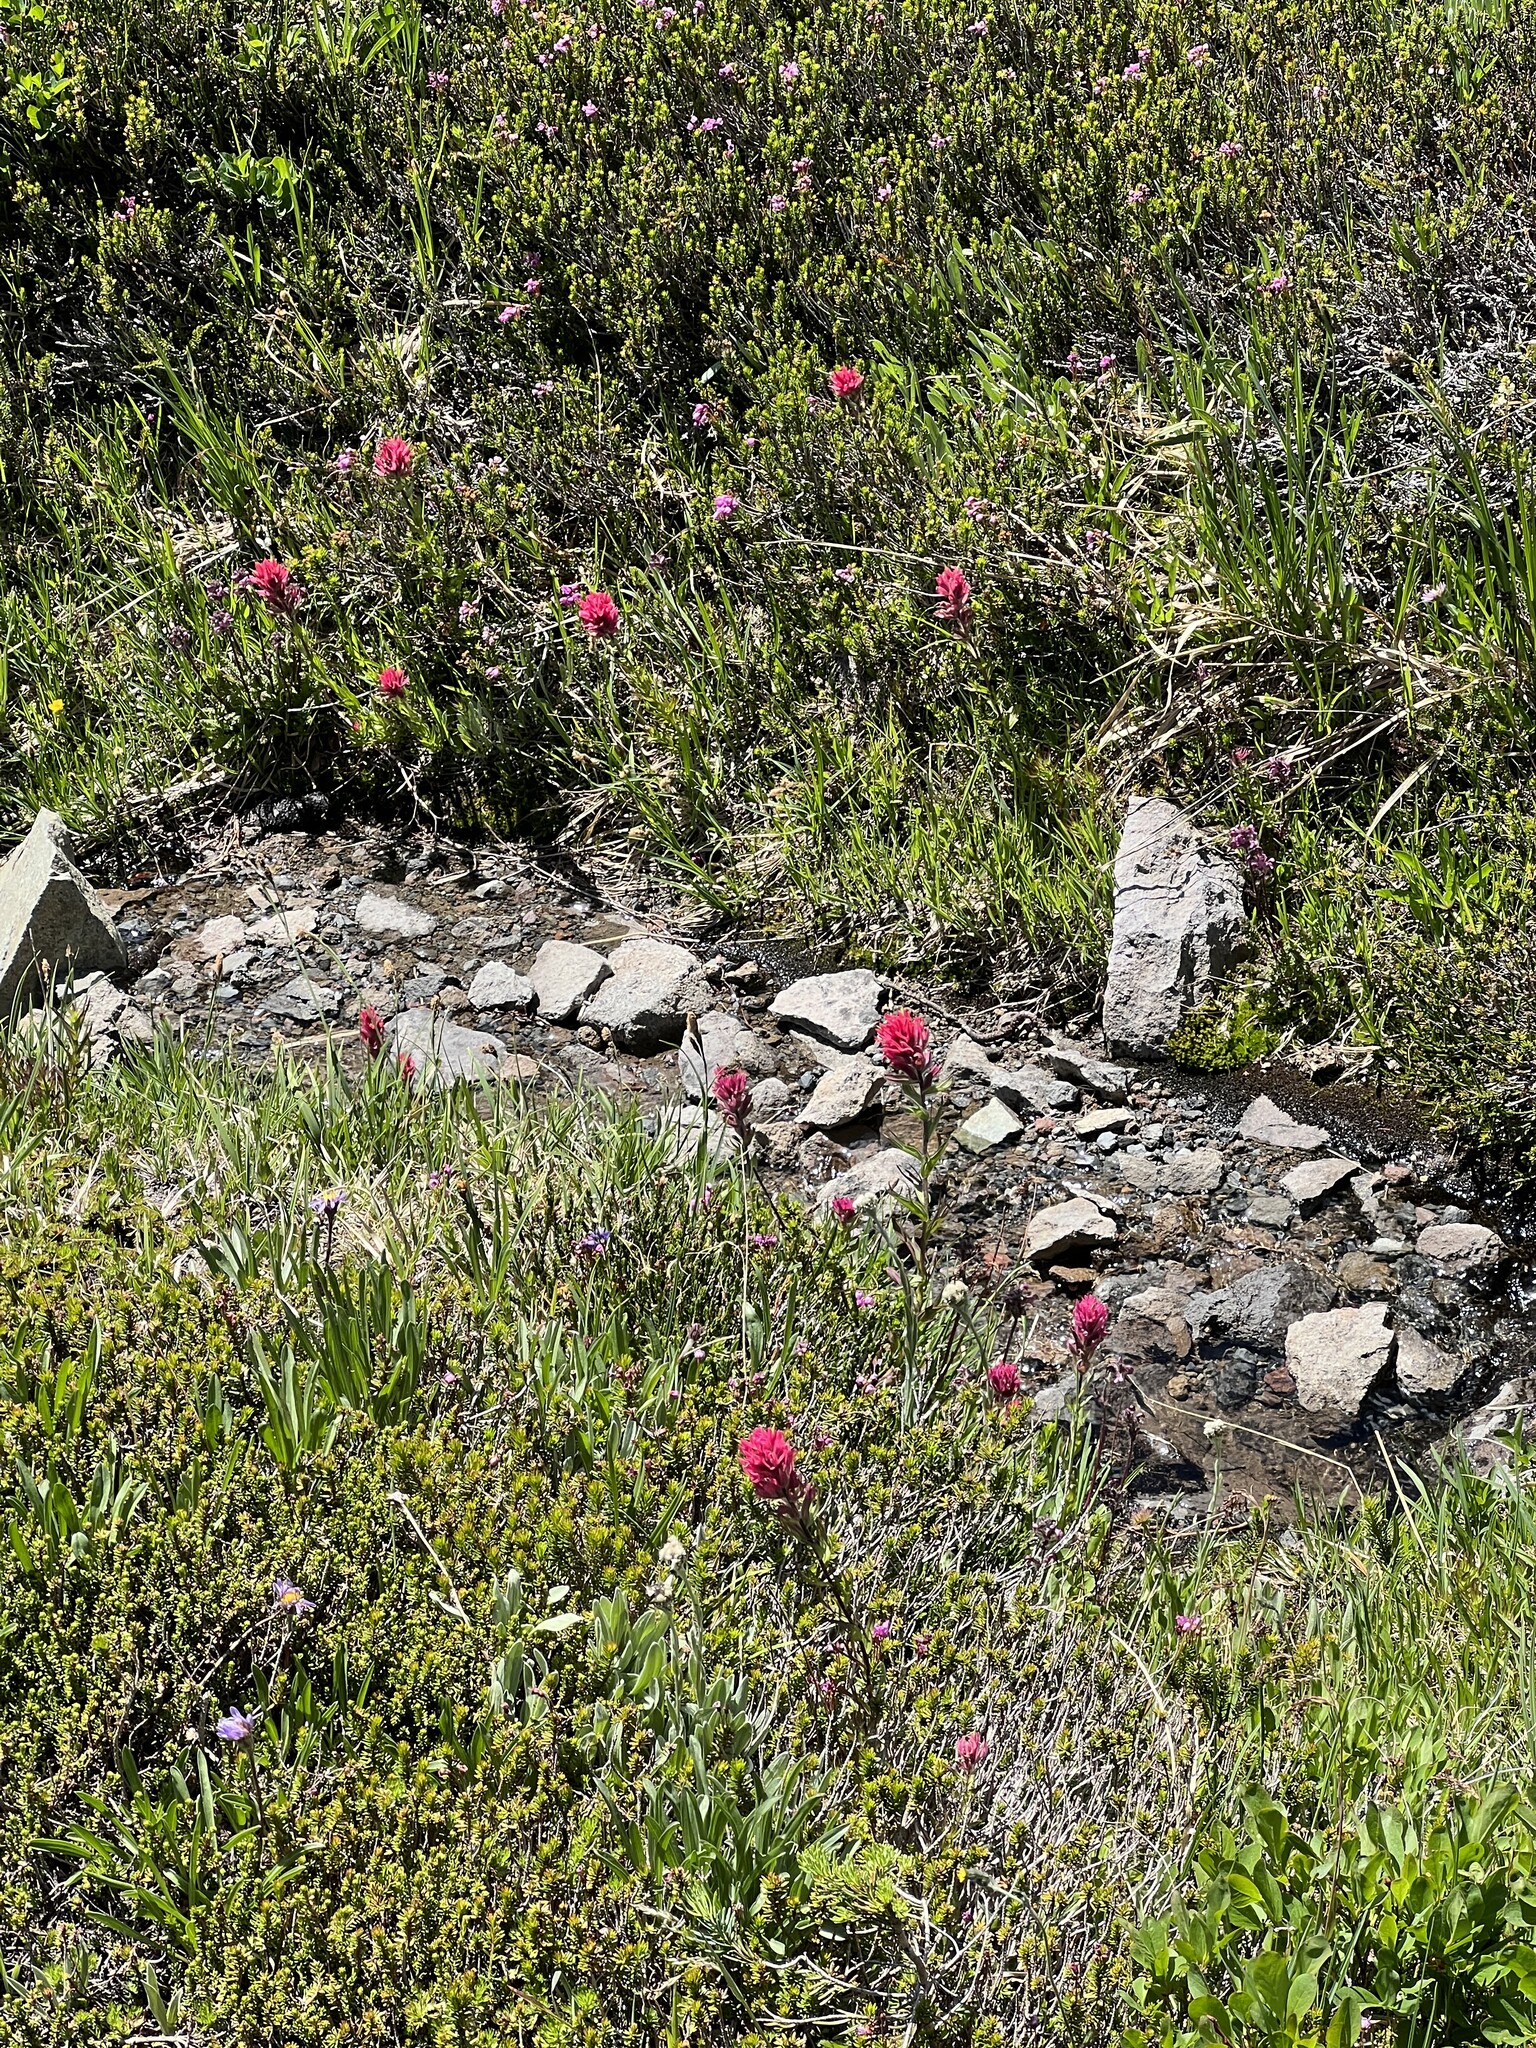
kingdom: Plantae
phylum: Tracheophyta
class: Magnoliopsida
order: Lamiales
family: Orobanchaceae
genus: Castilleja
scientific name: Castilleja parviflora
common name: Mountain paintbrush
